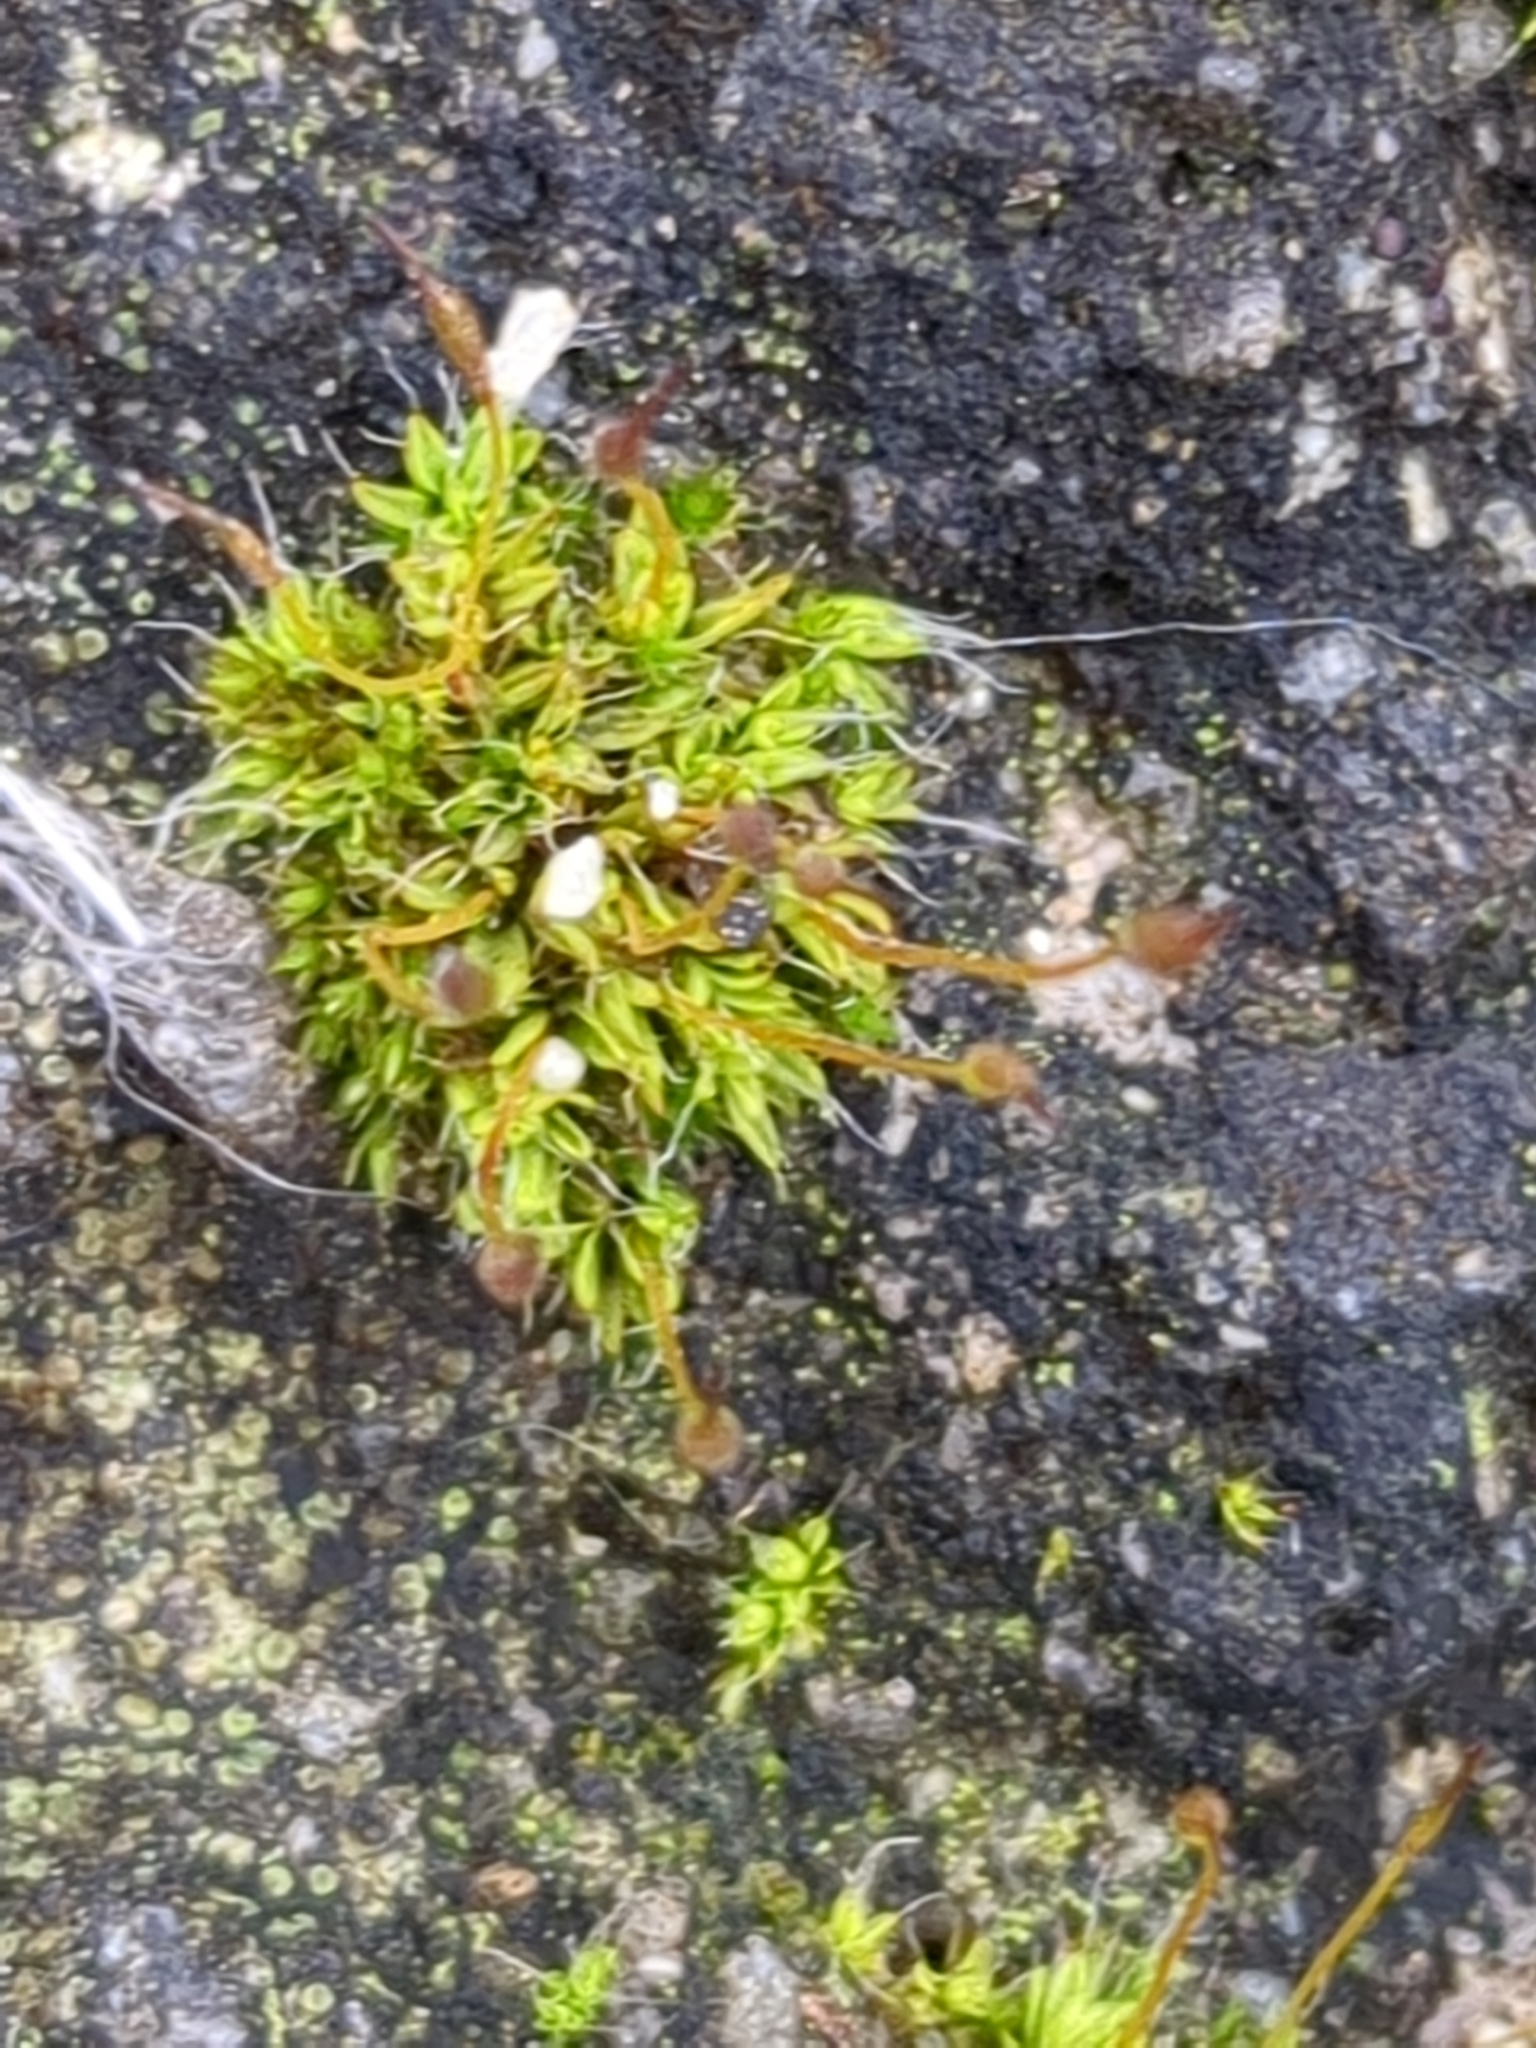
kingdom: Plantae
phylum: Bryophyta
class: Bryopsida
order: Pottiales
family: Pottiaceae
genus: Tortula
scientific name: Tortula muralis
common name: Wall screw-moss
